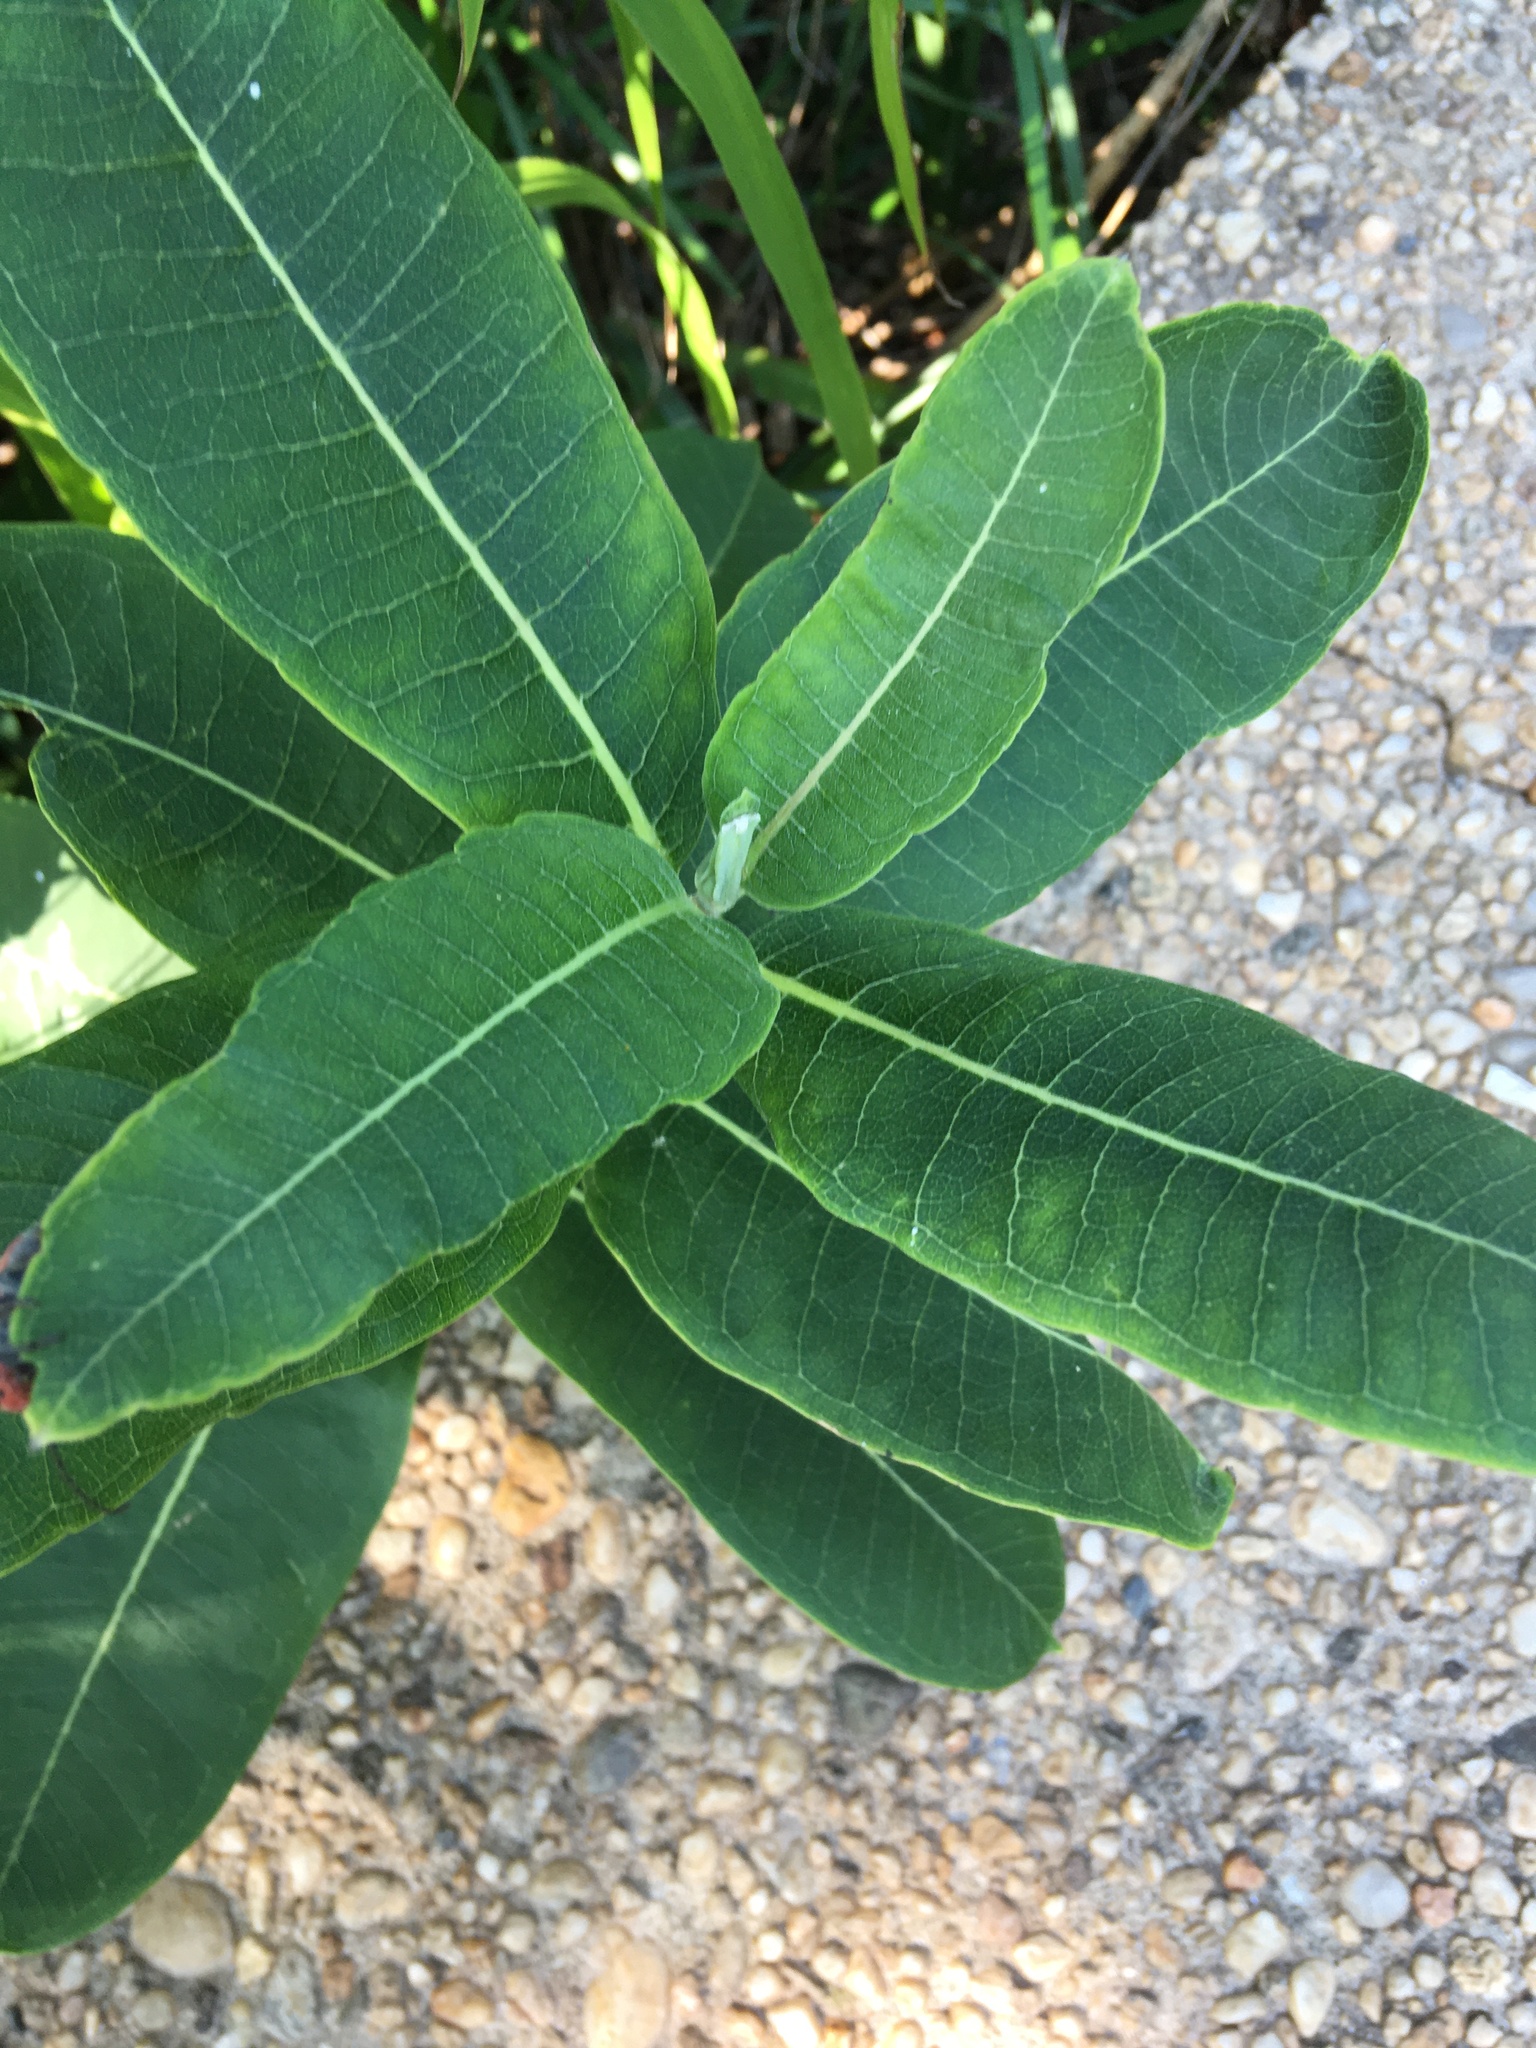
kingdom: Plantae
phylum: Tracheophyta
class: Magnoliopsida
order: Gentianales
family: Apocynaceae
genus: Asclepias
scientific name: Asclepias syriaca
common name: Common milkweed
